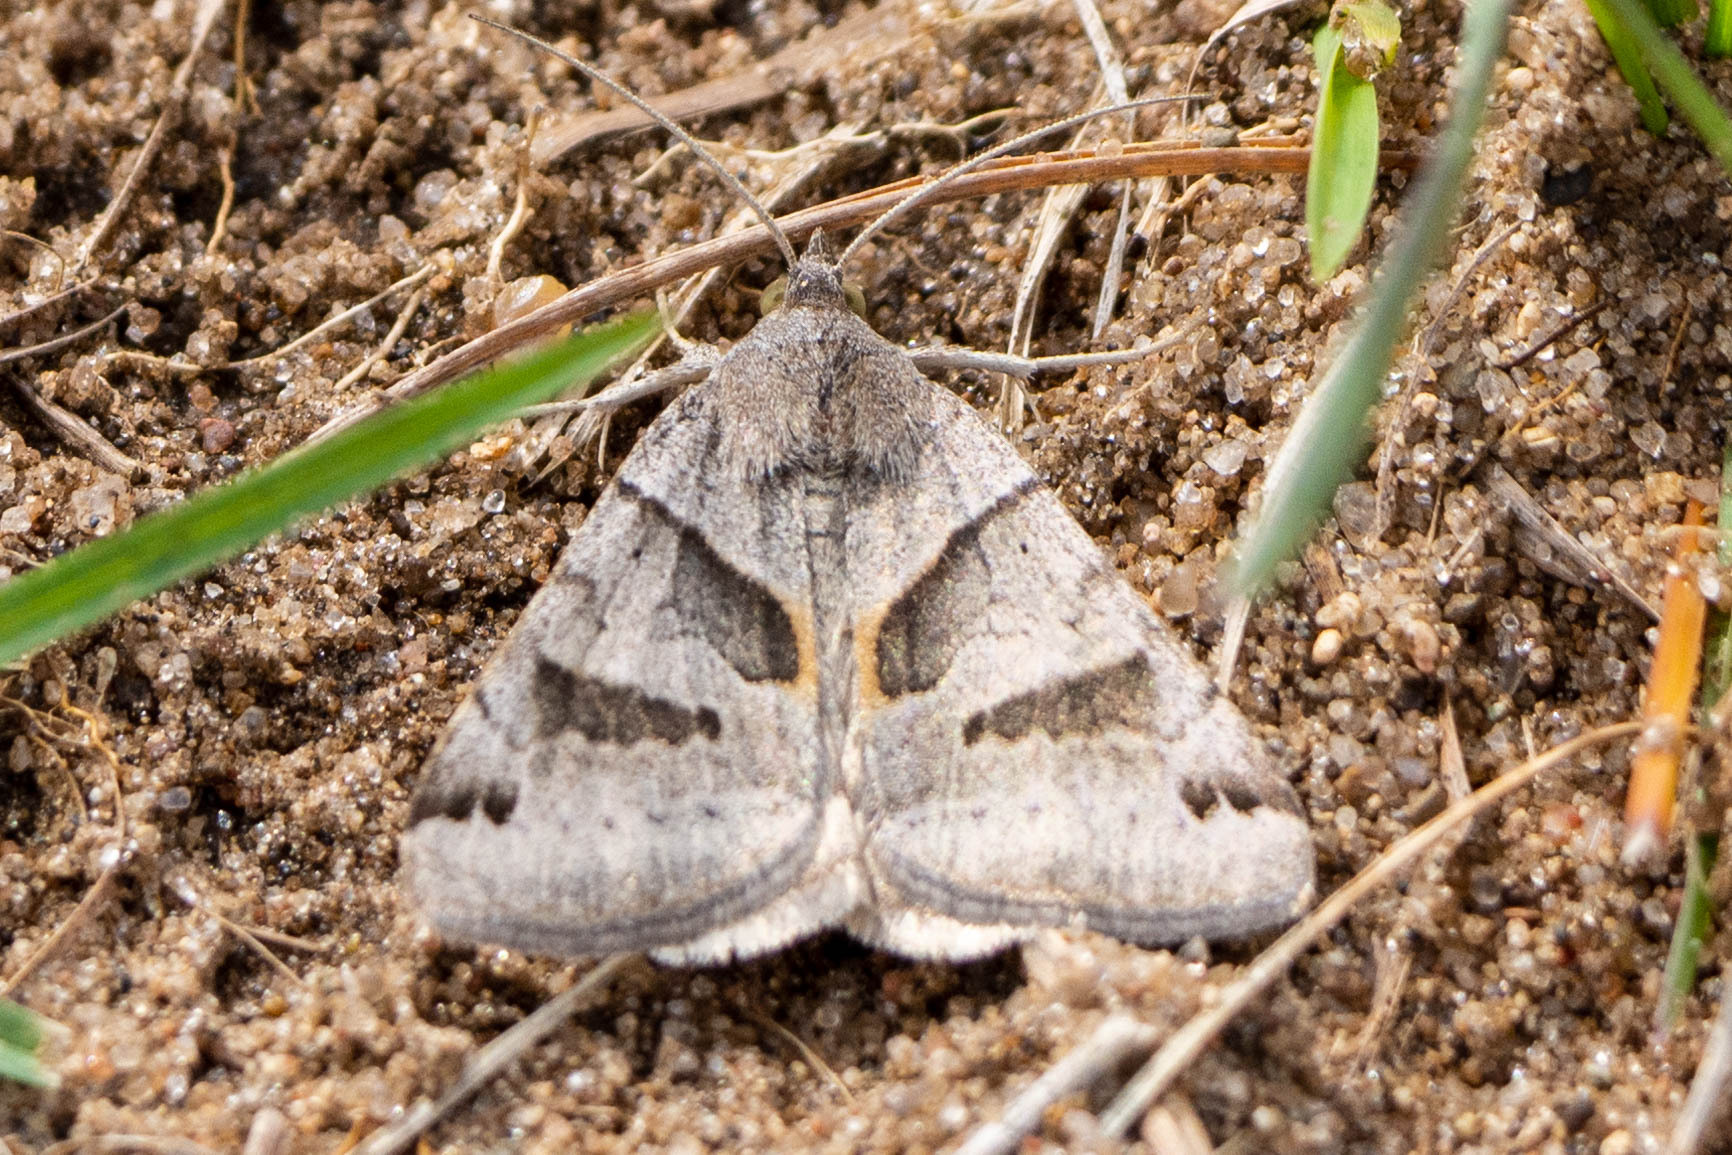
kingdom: Animalia
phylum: Arthropoda
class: Insecta
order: Lepidoptera
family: Erebidae
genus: Caenurgina
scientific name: Caenurgina erechtea
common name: Forage looper moth
